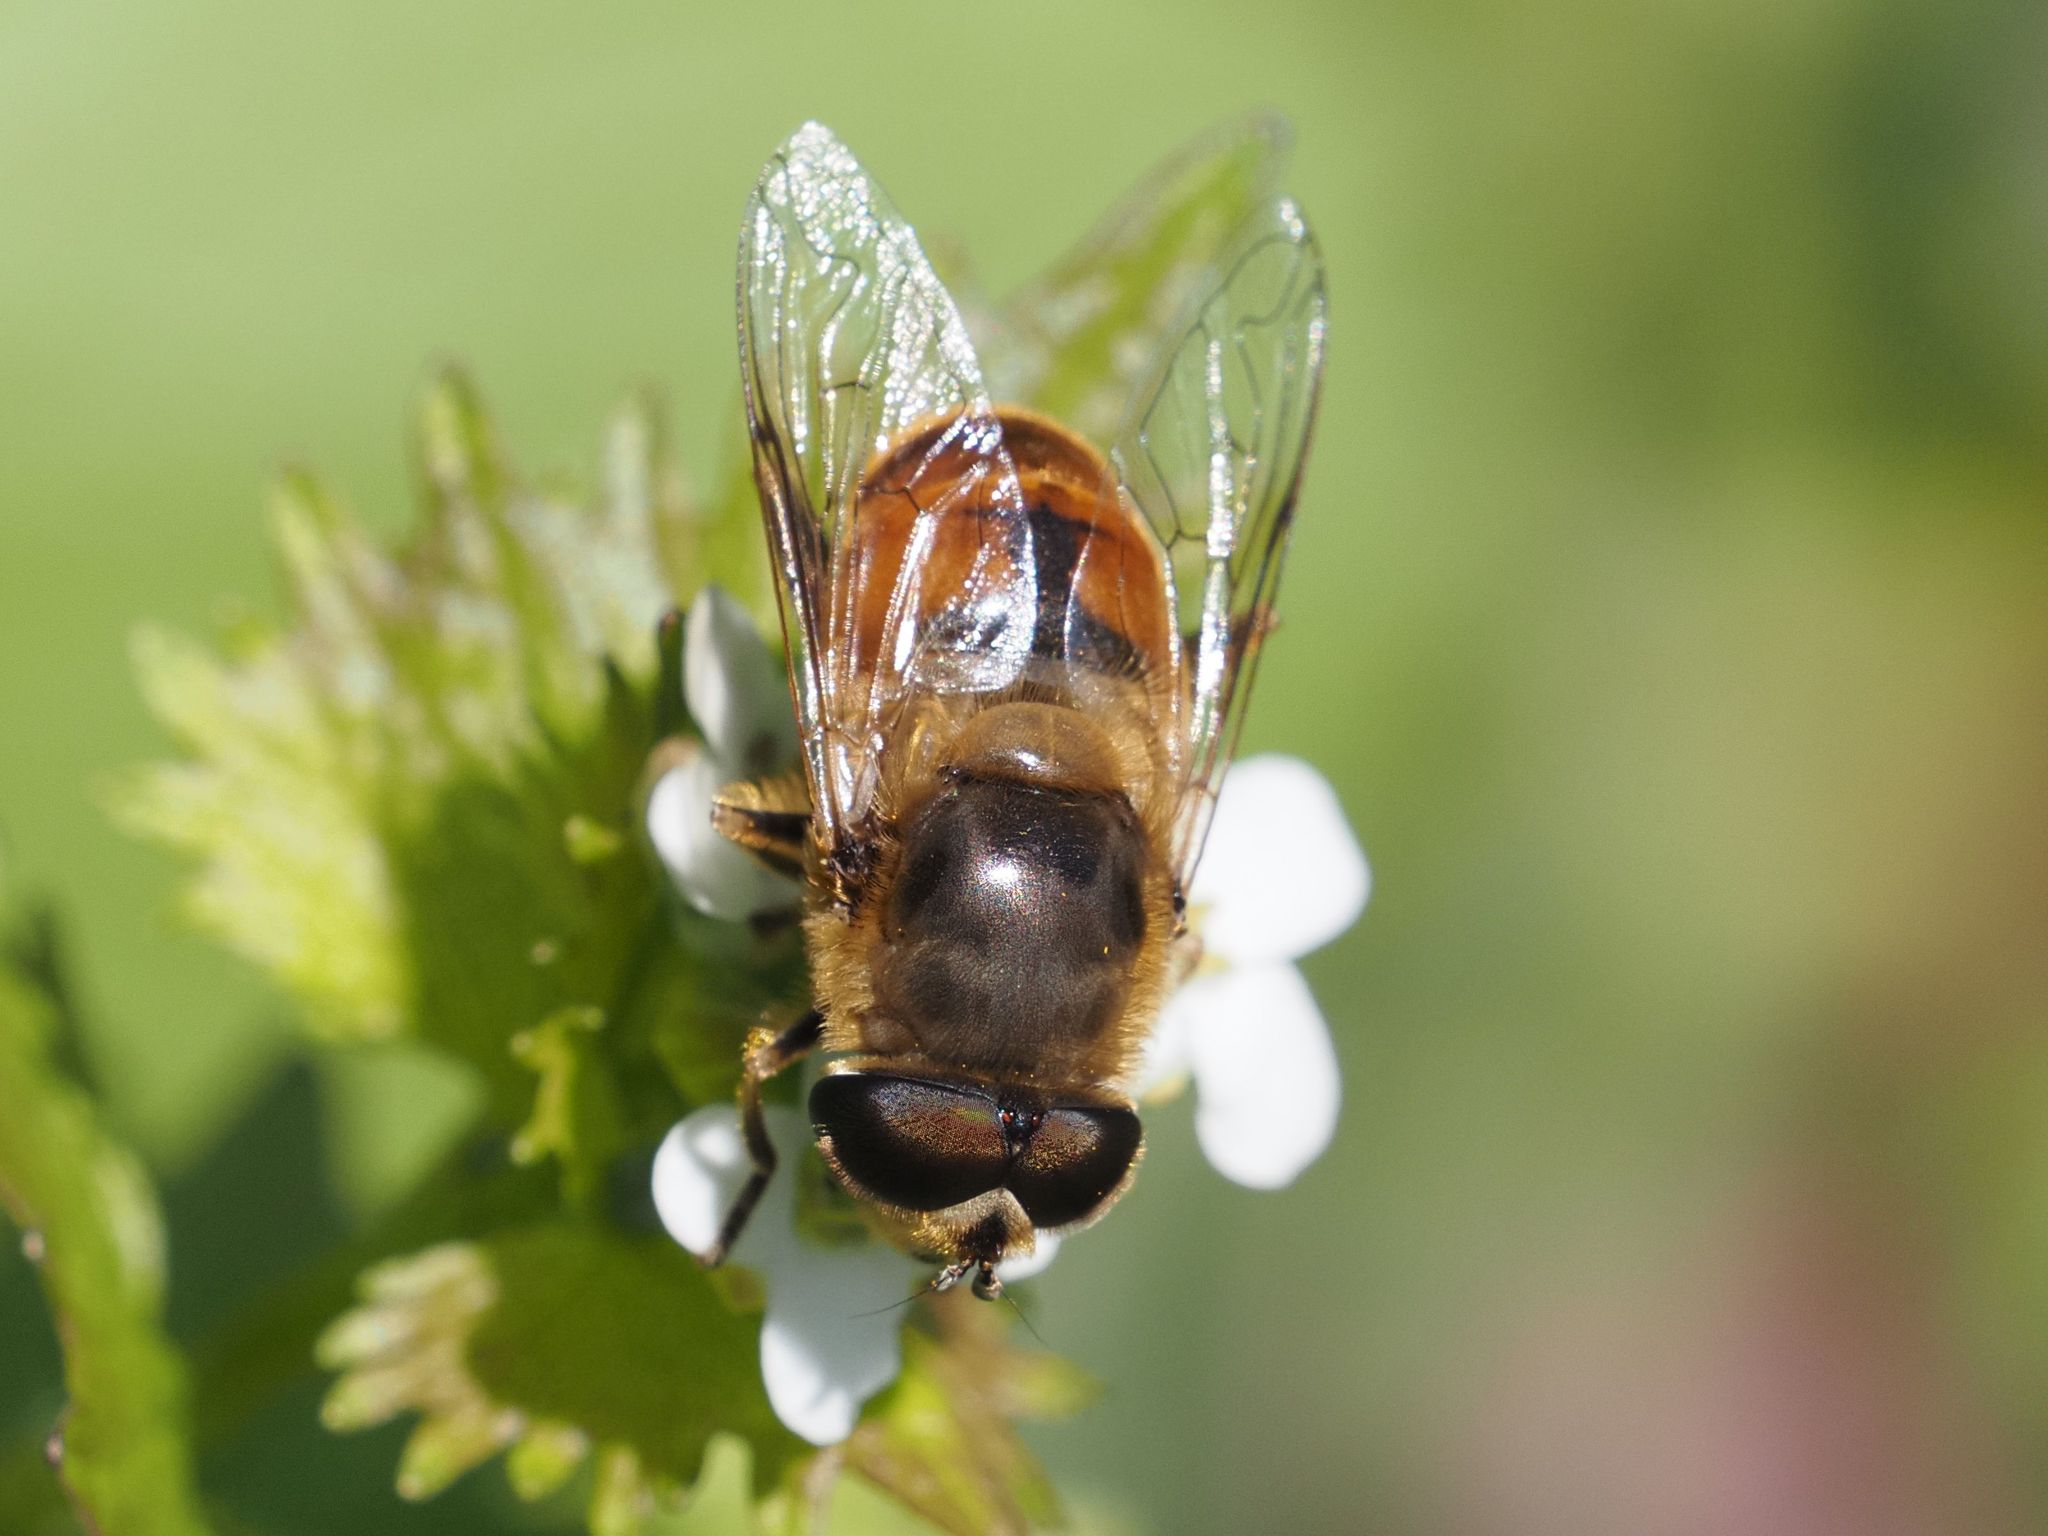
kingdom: Animalia
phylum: Arthropoda
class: Insecta
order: Diptera
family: Syrphidae
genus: Eristalis
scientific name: Eristalis tenax
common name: Drone fly
